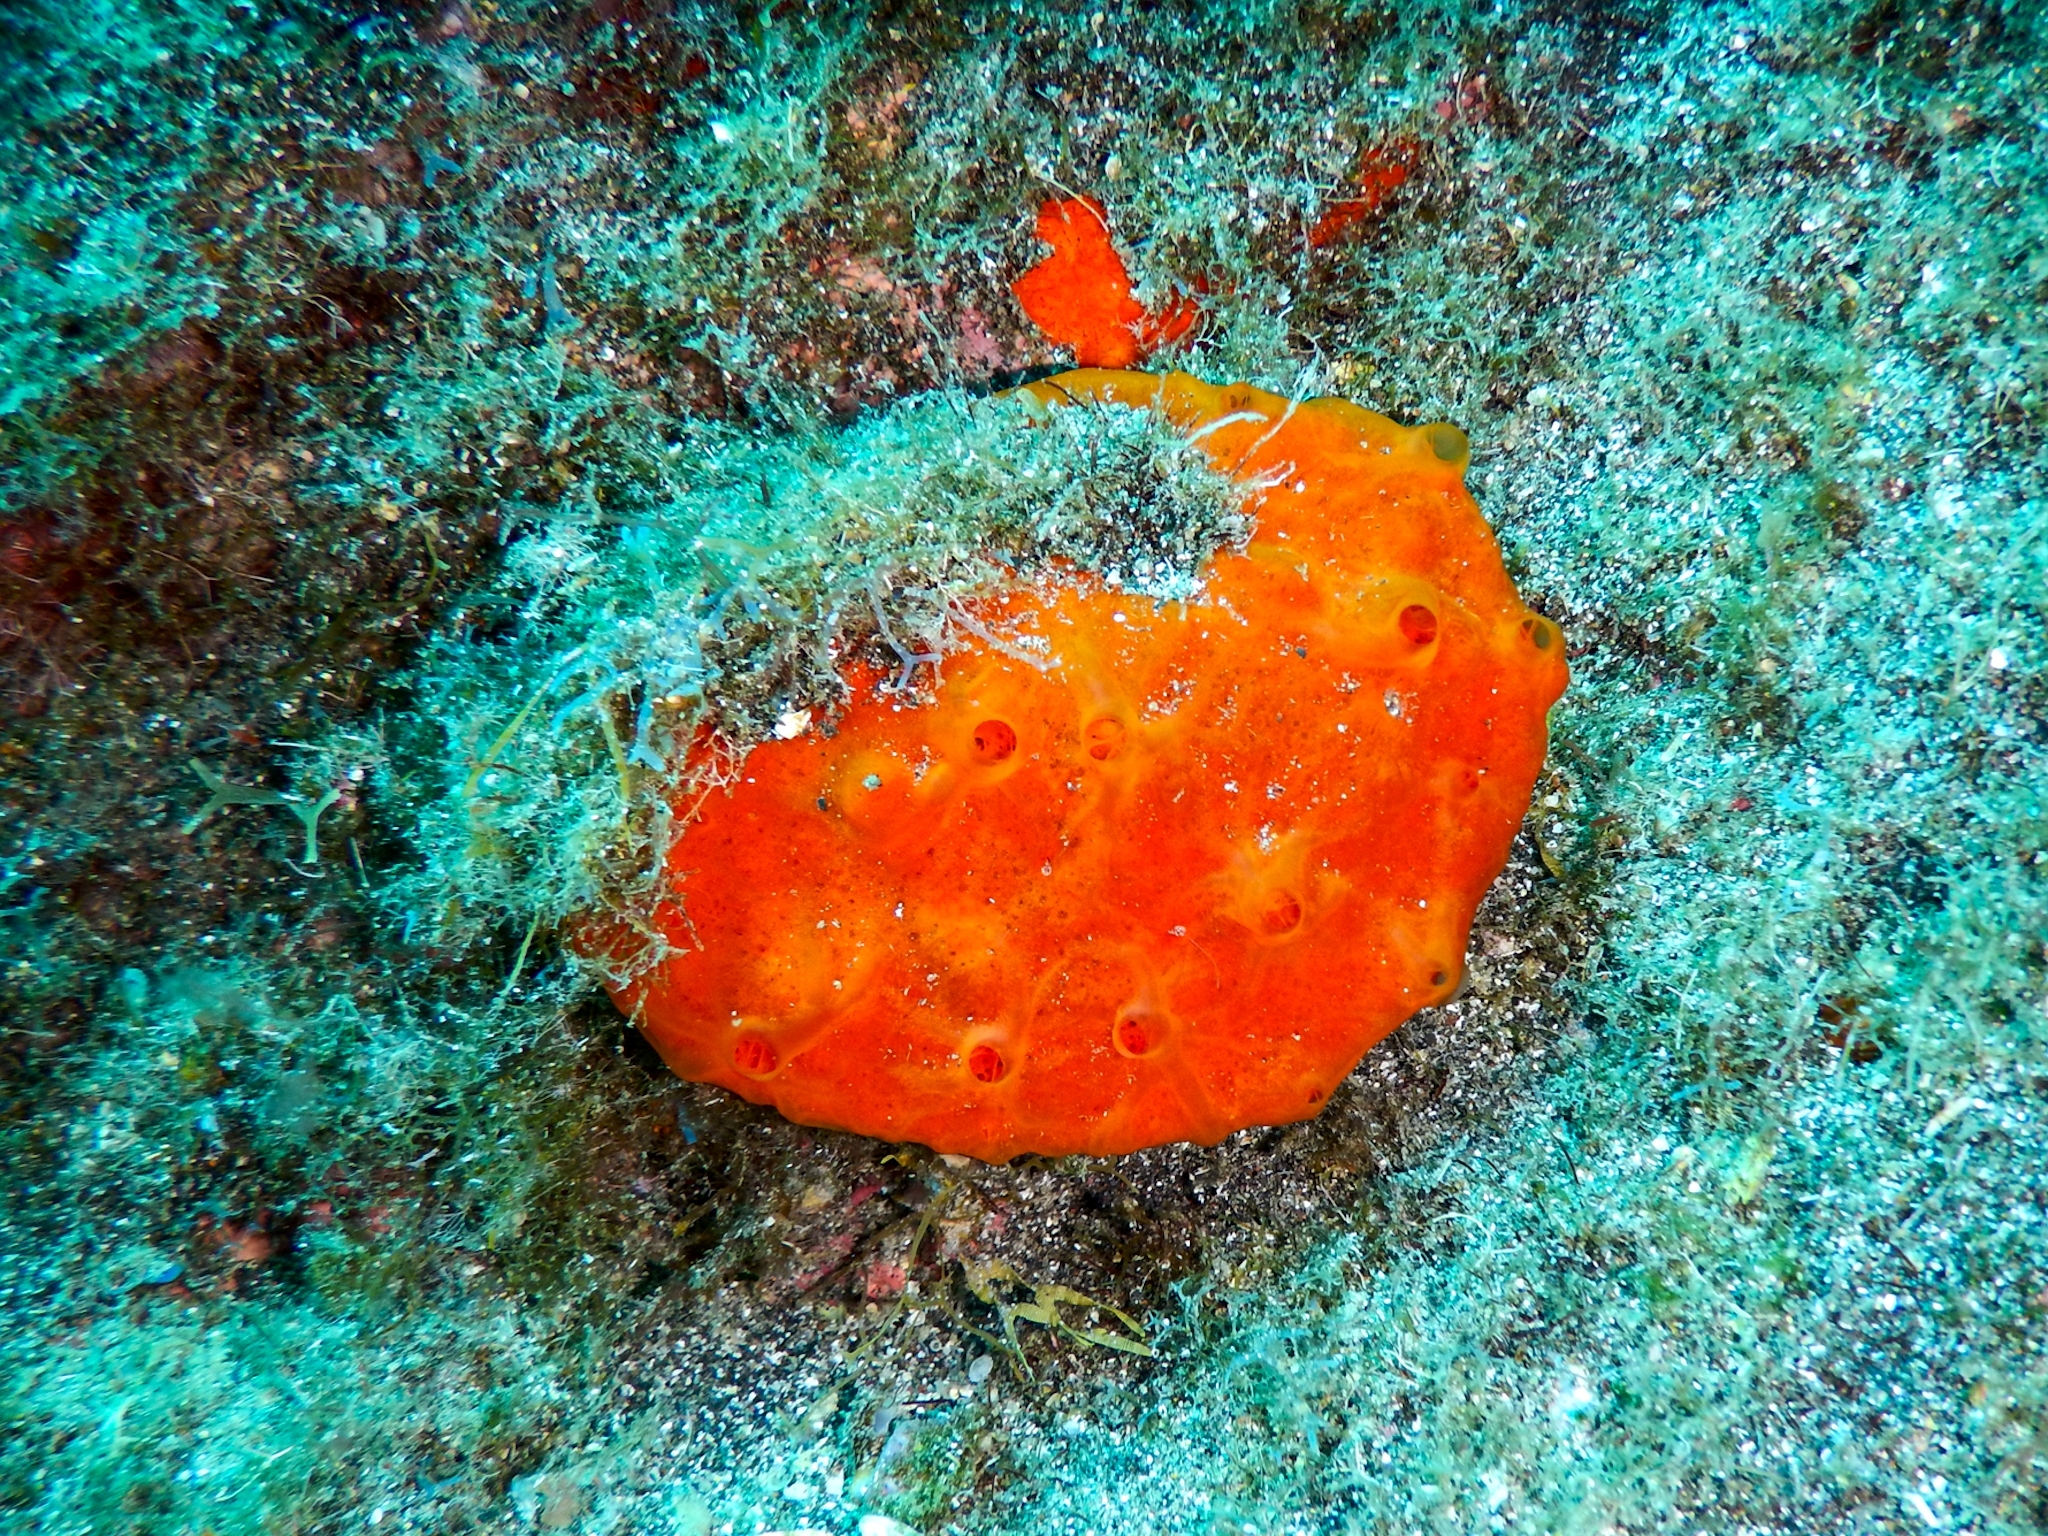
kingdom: Animalia
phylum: Porifera
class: Demospongiae
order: Poecilosclerida
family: Crambeidae
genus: Crambe
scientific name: Crambe crambe
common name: Orange-red encrusting sponge
